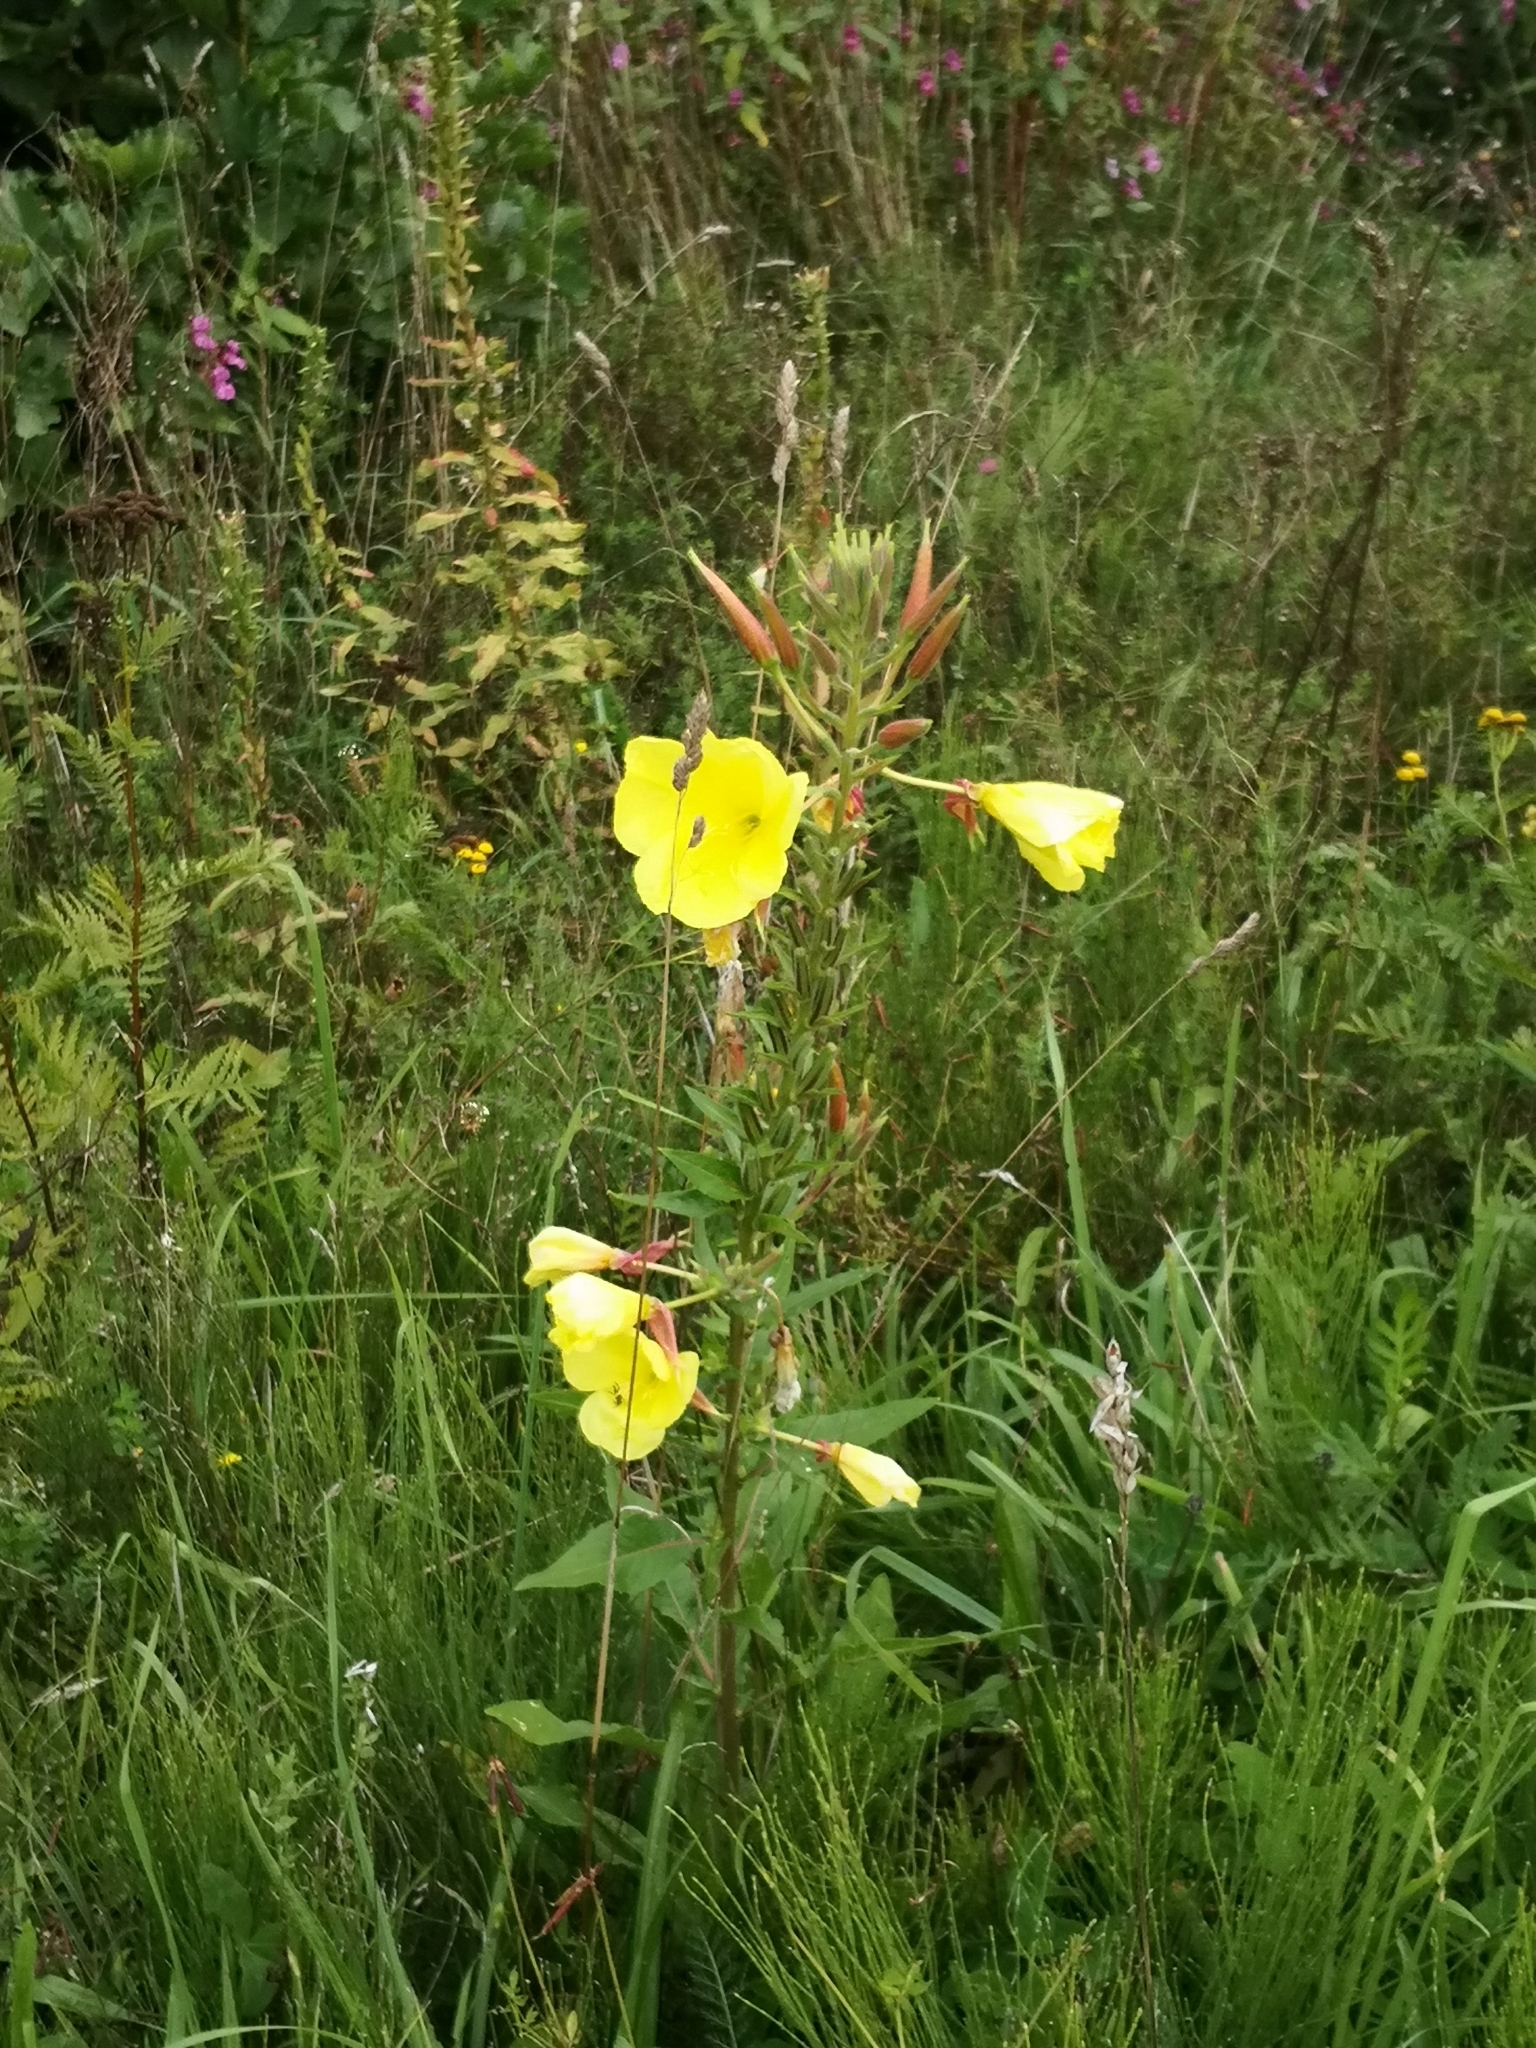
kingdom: Plantae
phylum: Tracheophyta
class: Magnoliopsida
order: Myrtales
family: Onagraceae
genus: Oenothera
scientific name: Oenothera glazioviana
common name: Large-flowered evening-primrose
